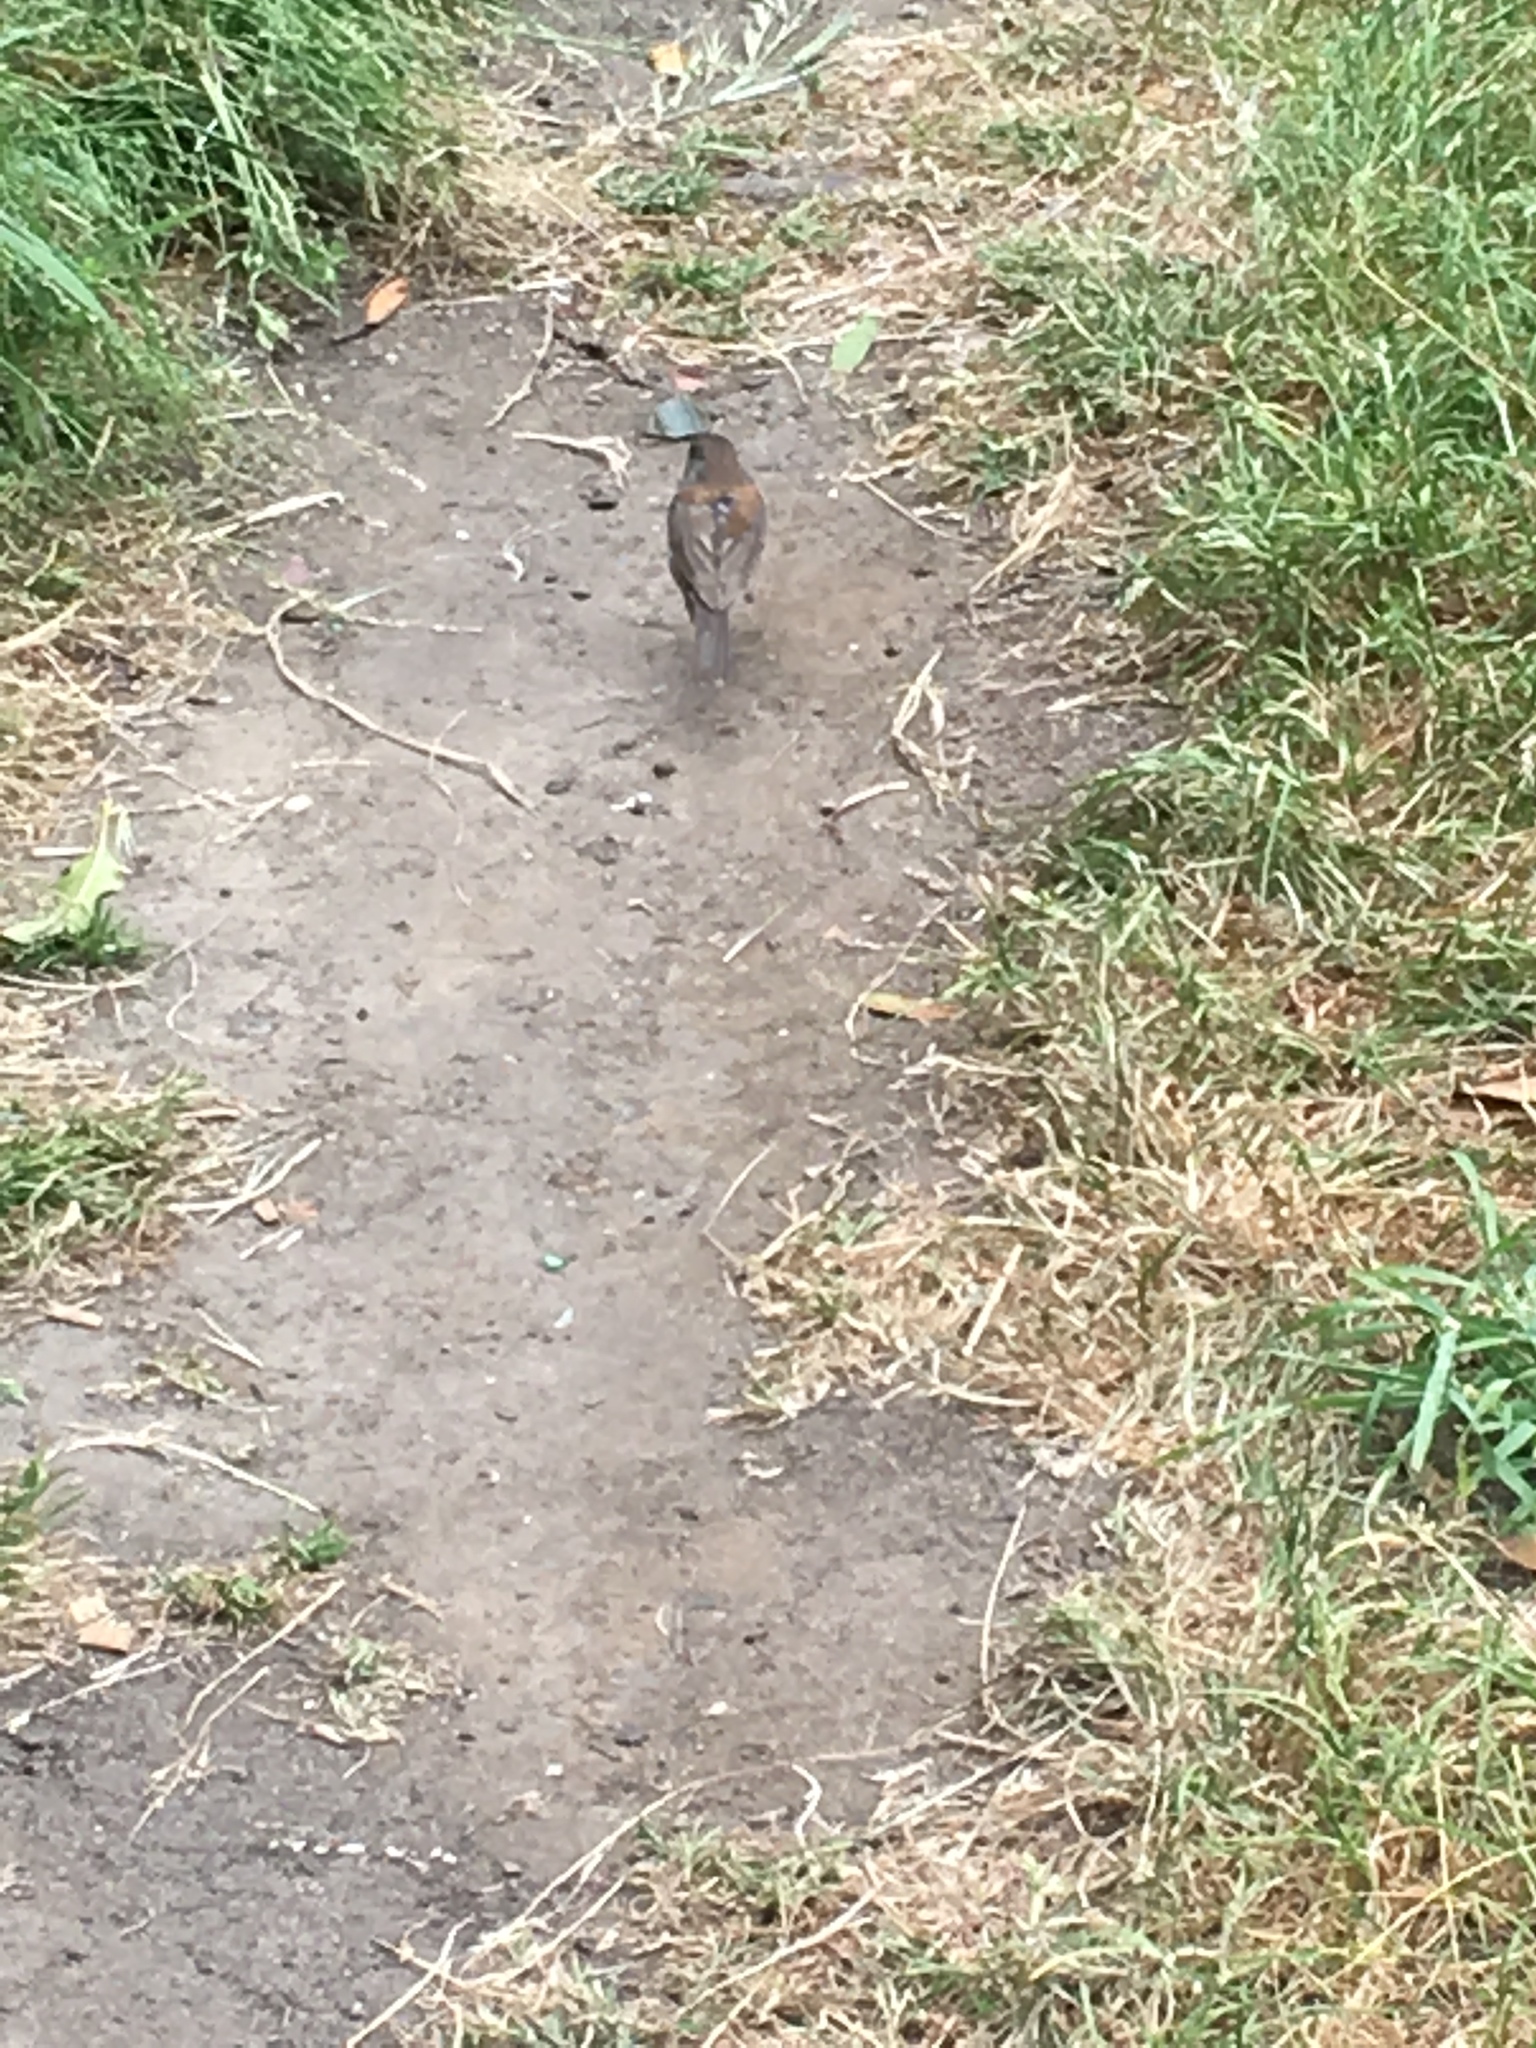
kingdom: Animalia
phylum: Chordata
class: Aves
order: Passeriformes
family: Passerellidae
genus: Junco
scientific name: Junco hyemalis
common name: Dark-eyed junco
